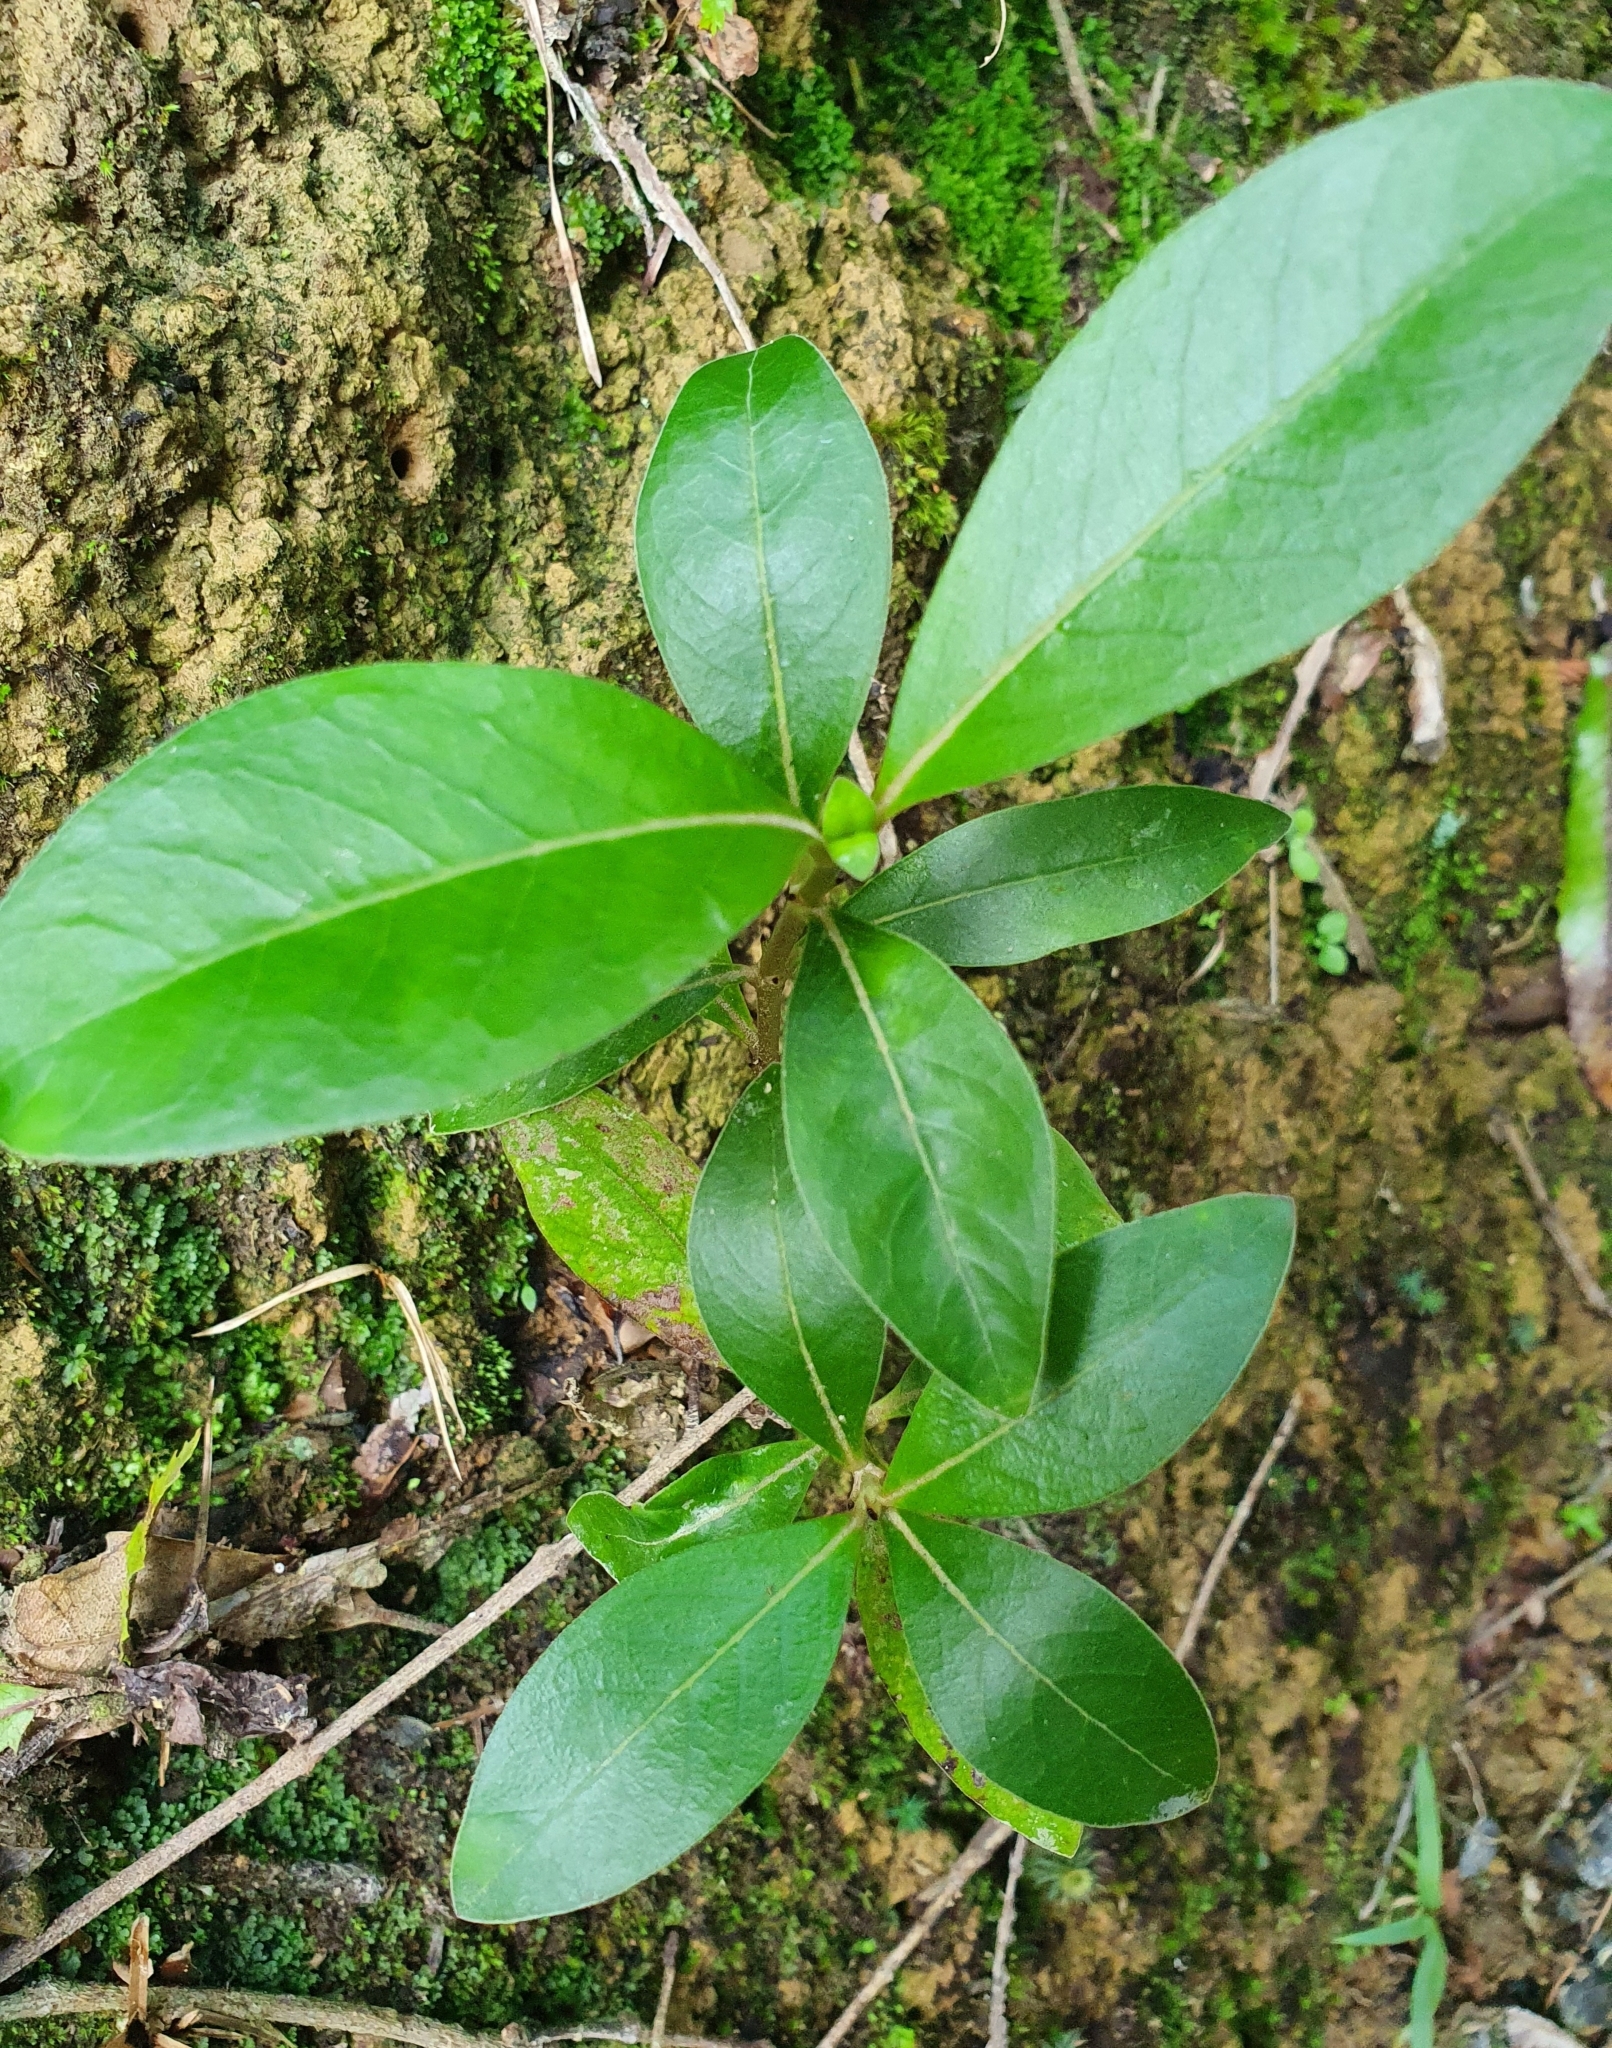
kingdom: Plantae
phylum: Tracheophyta
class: Magnoliopsida
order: Gentianales
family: Rubiaceae
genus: Coprosma
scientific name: Coprosma robusta
